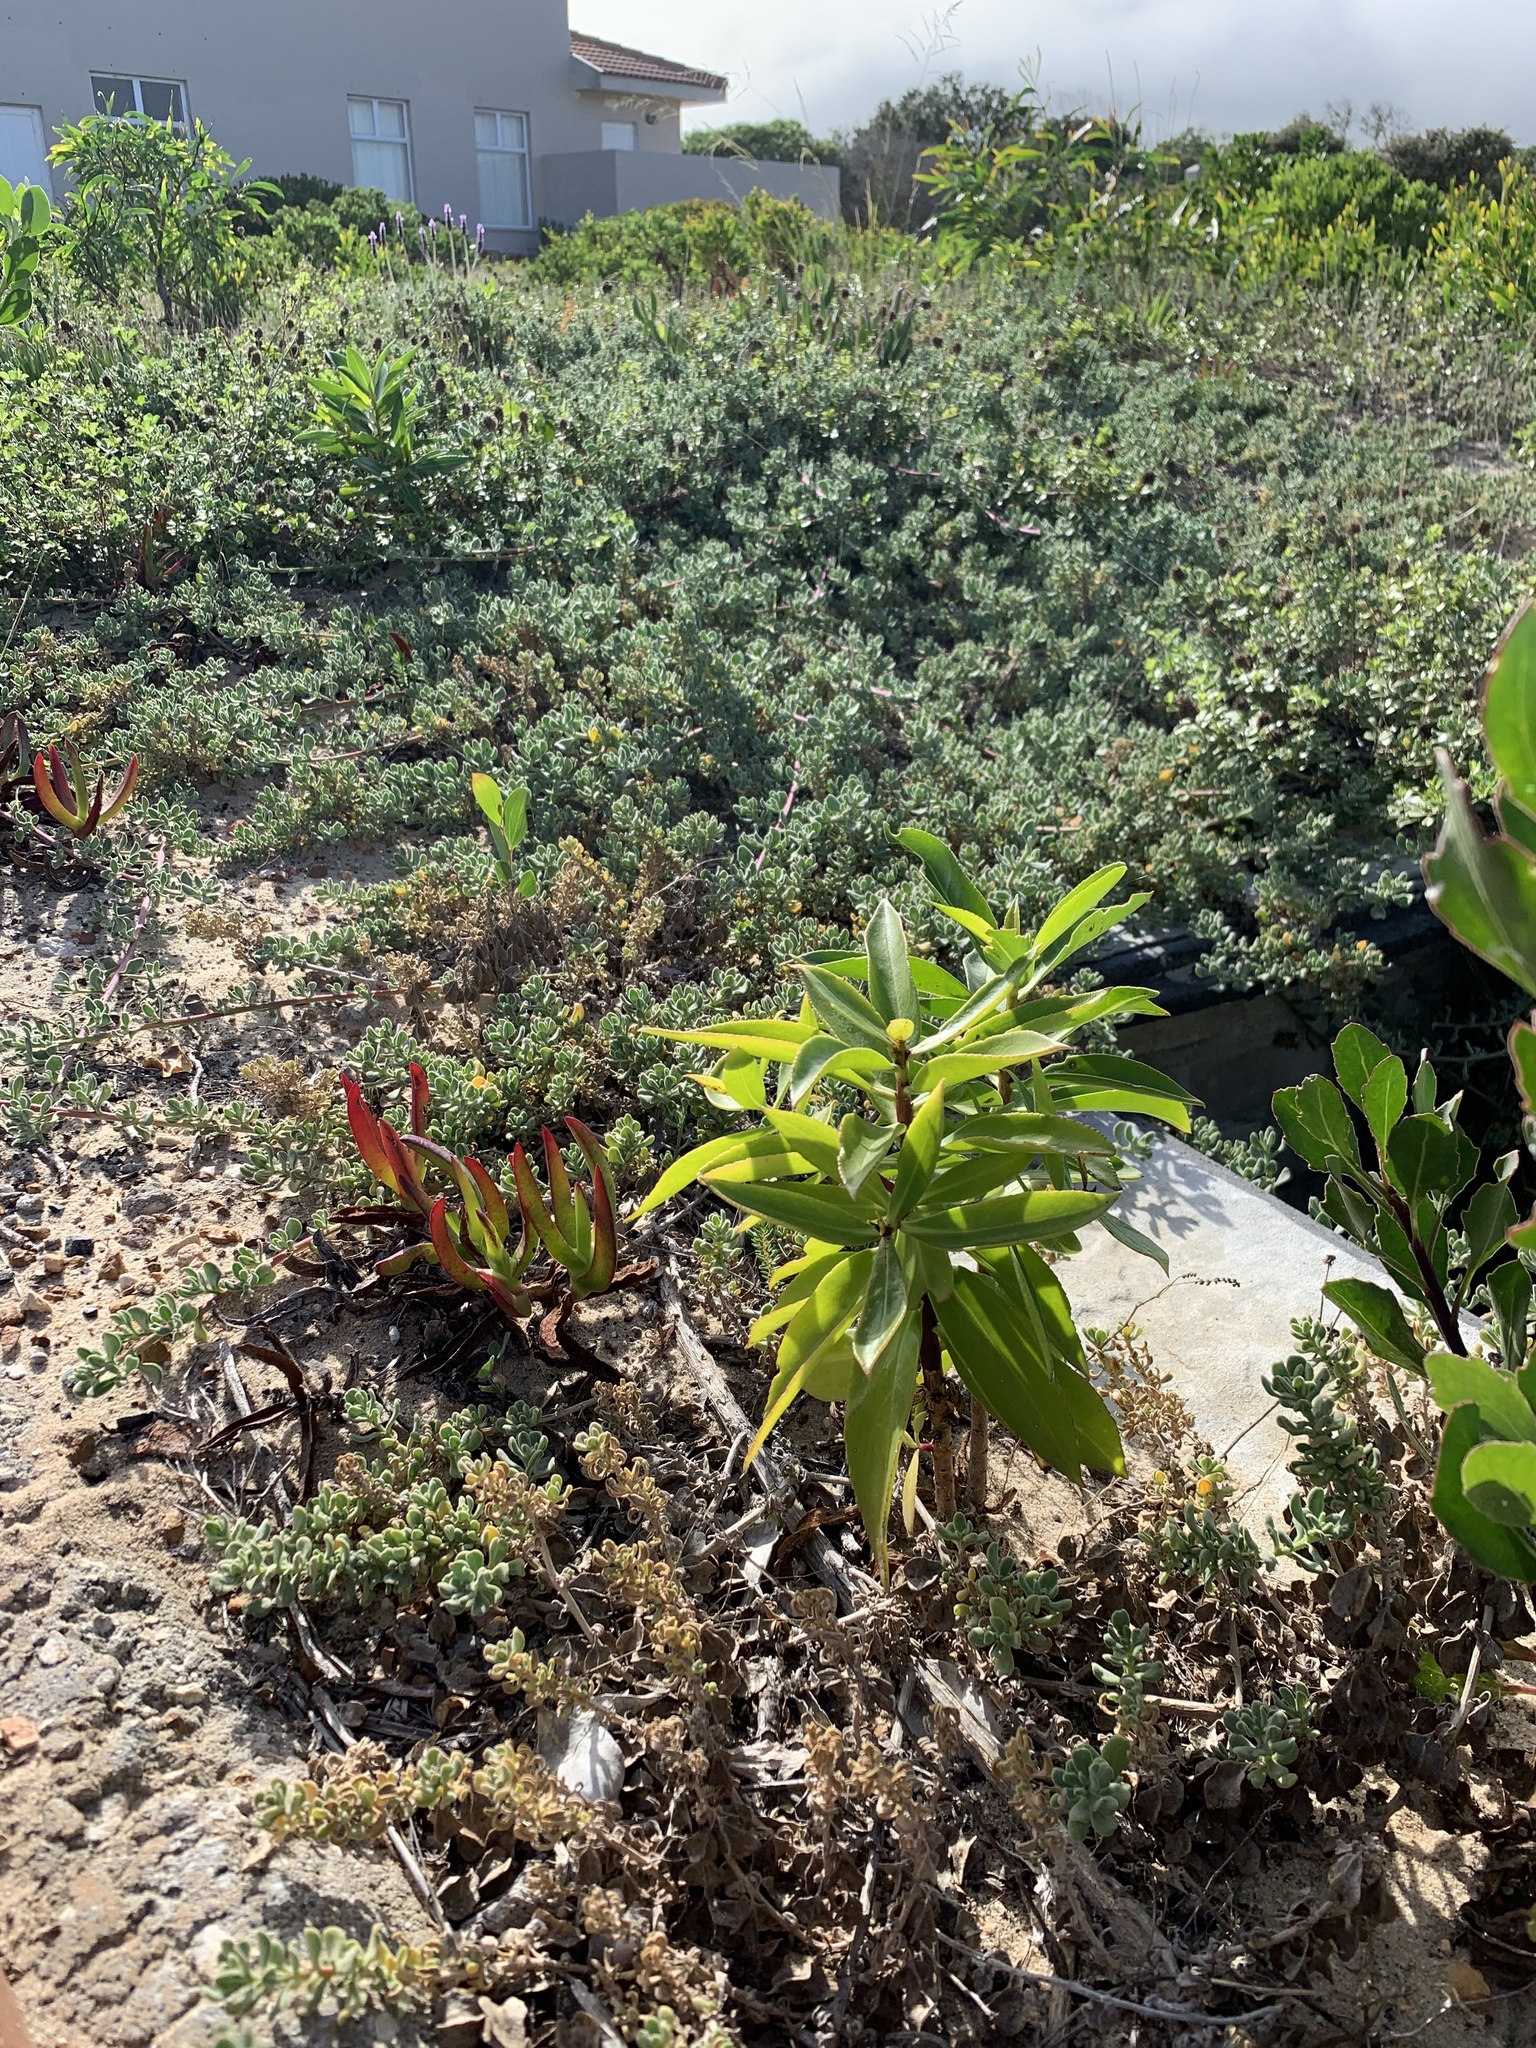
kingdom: Plantae
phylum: Tracheophyta
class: Magnoliopsida
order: Lamiales
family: Scrophulariaceae
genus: Myoporum
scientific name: Myoporum insulare
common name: Common boobialla
